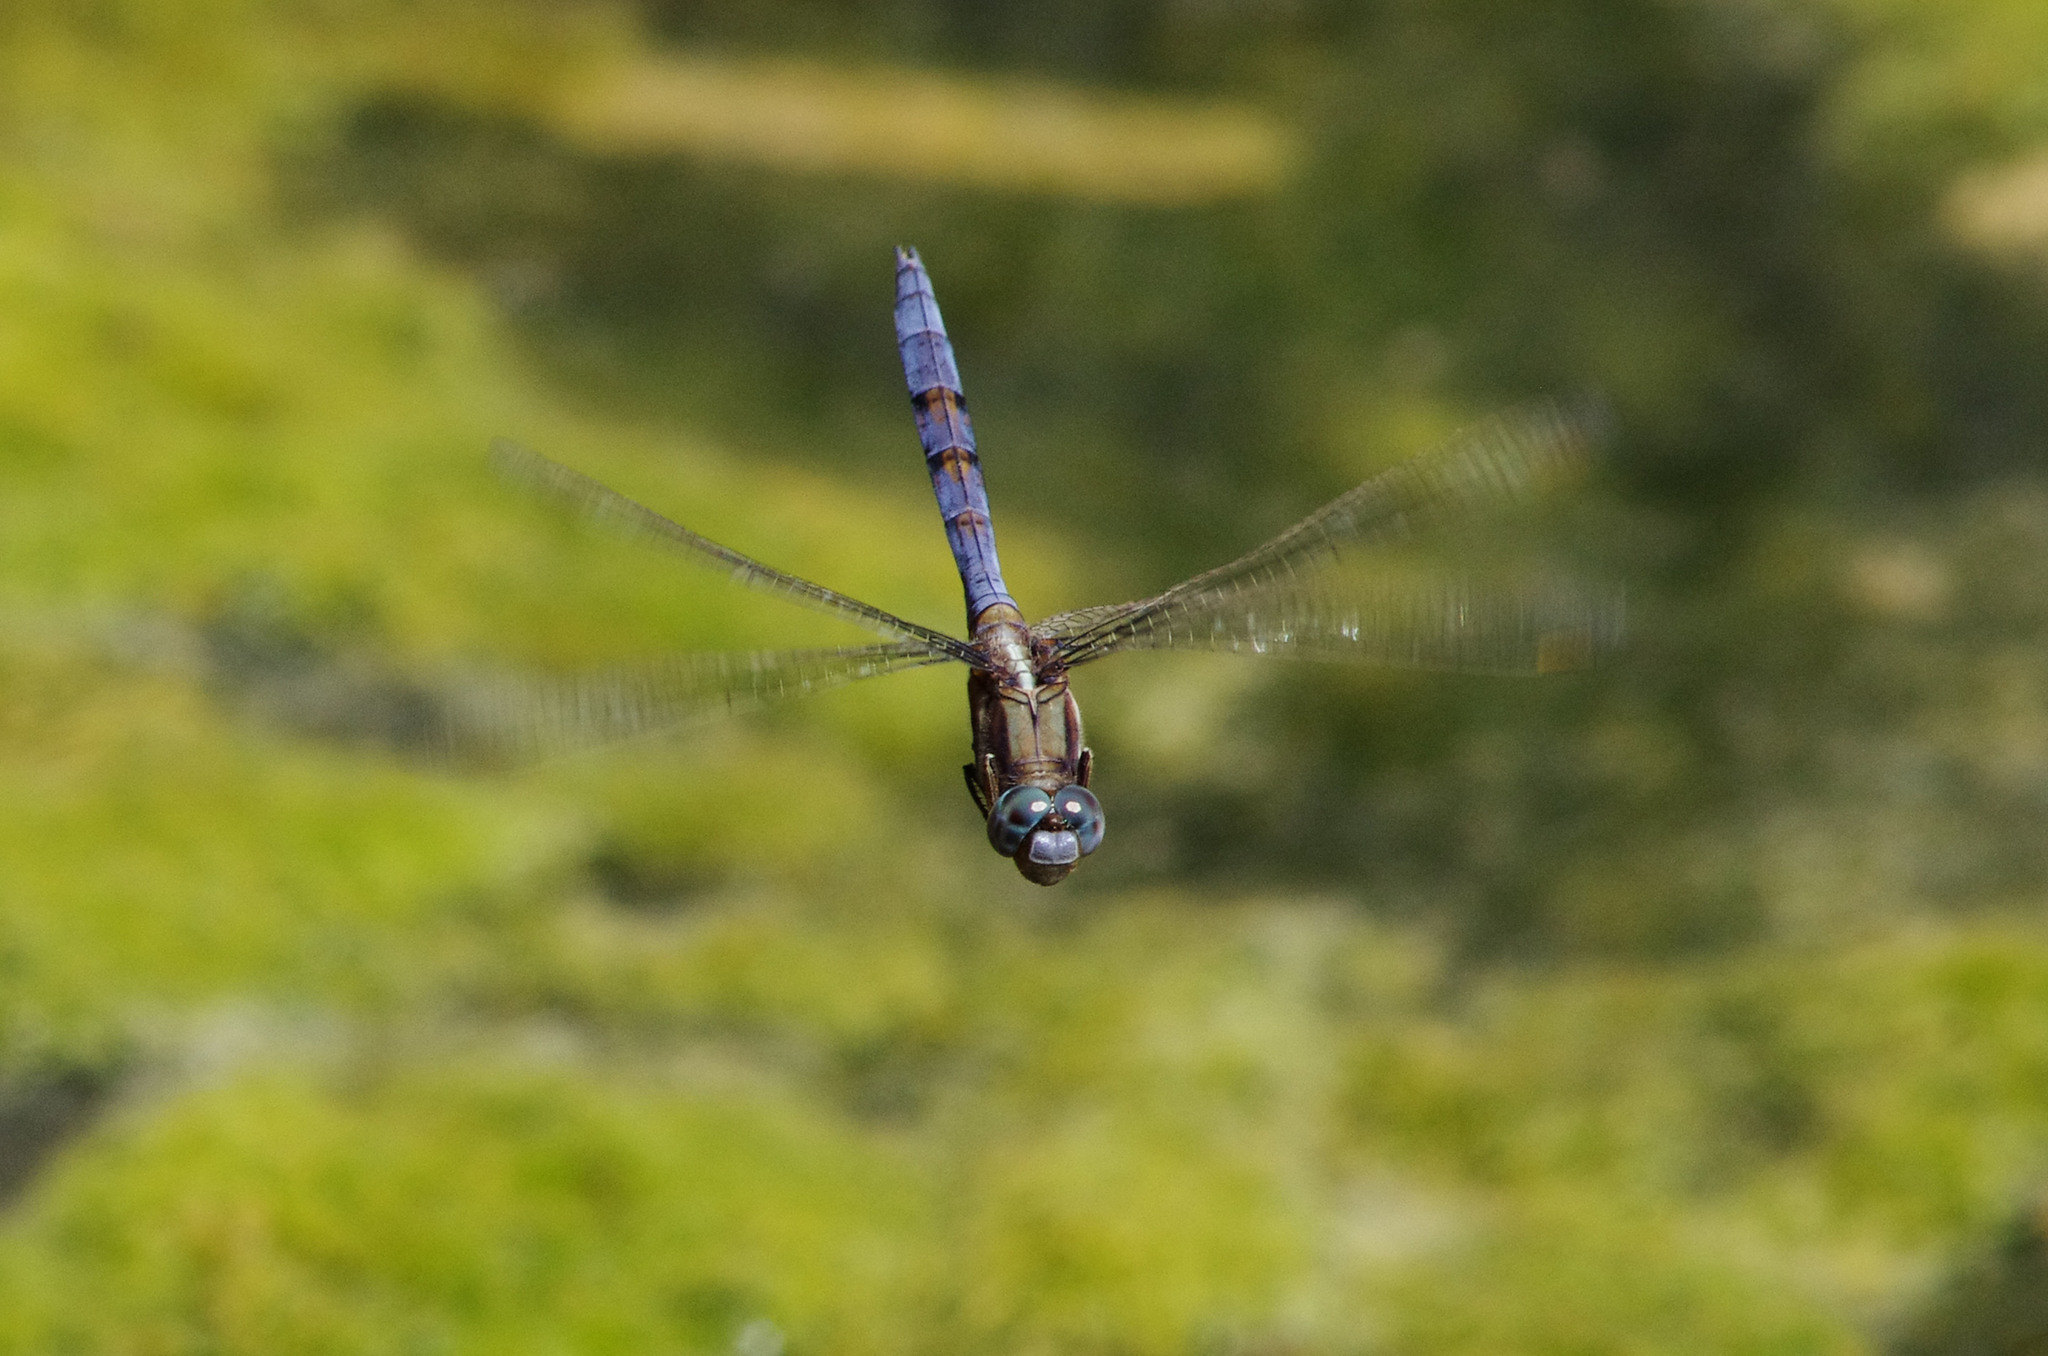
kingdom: Animalia
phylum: Arthropoda
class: Insecta
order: Odonata
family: Libellulidae
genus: Orthetrum
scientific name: Orthetrum chrysostigma
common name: Epaulet skimmer
